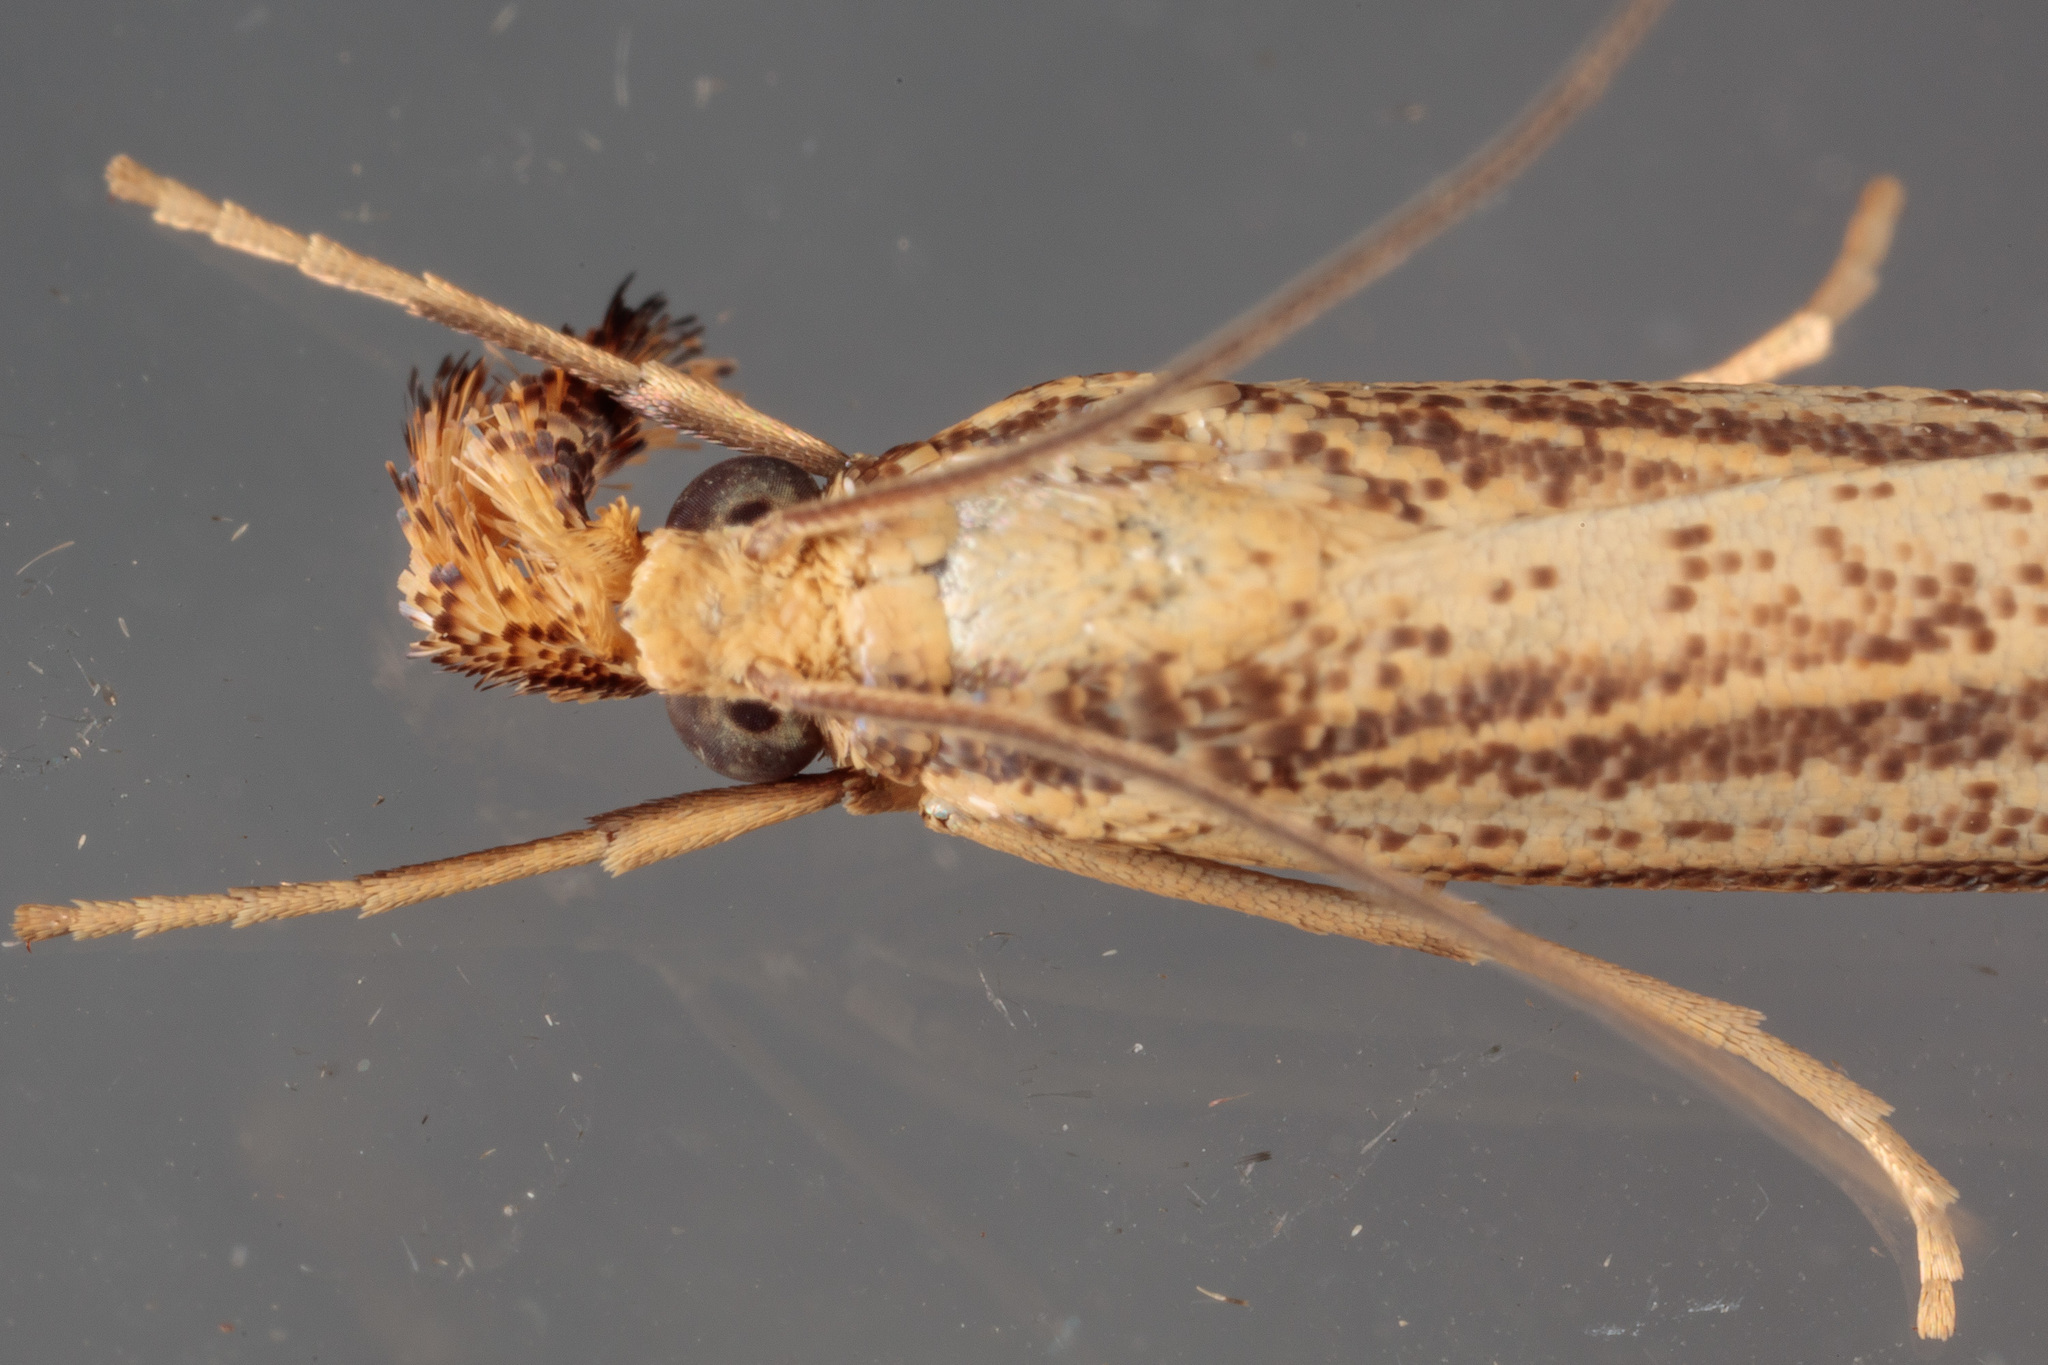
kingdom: Animalia
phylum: Arthropoda
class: Insecta
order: Lepidoptera
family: Crambidae
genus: Agriphila
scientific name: Agriphila vulgivagellus
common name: Vagabond crambus moth
